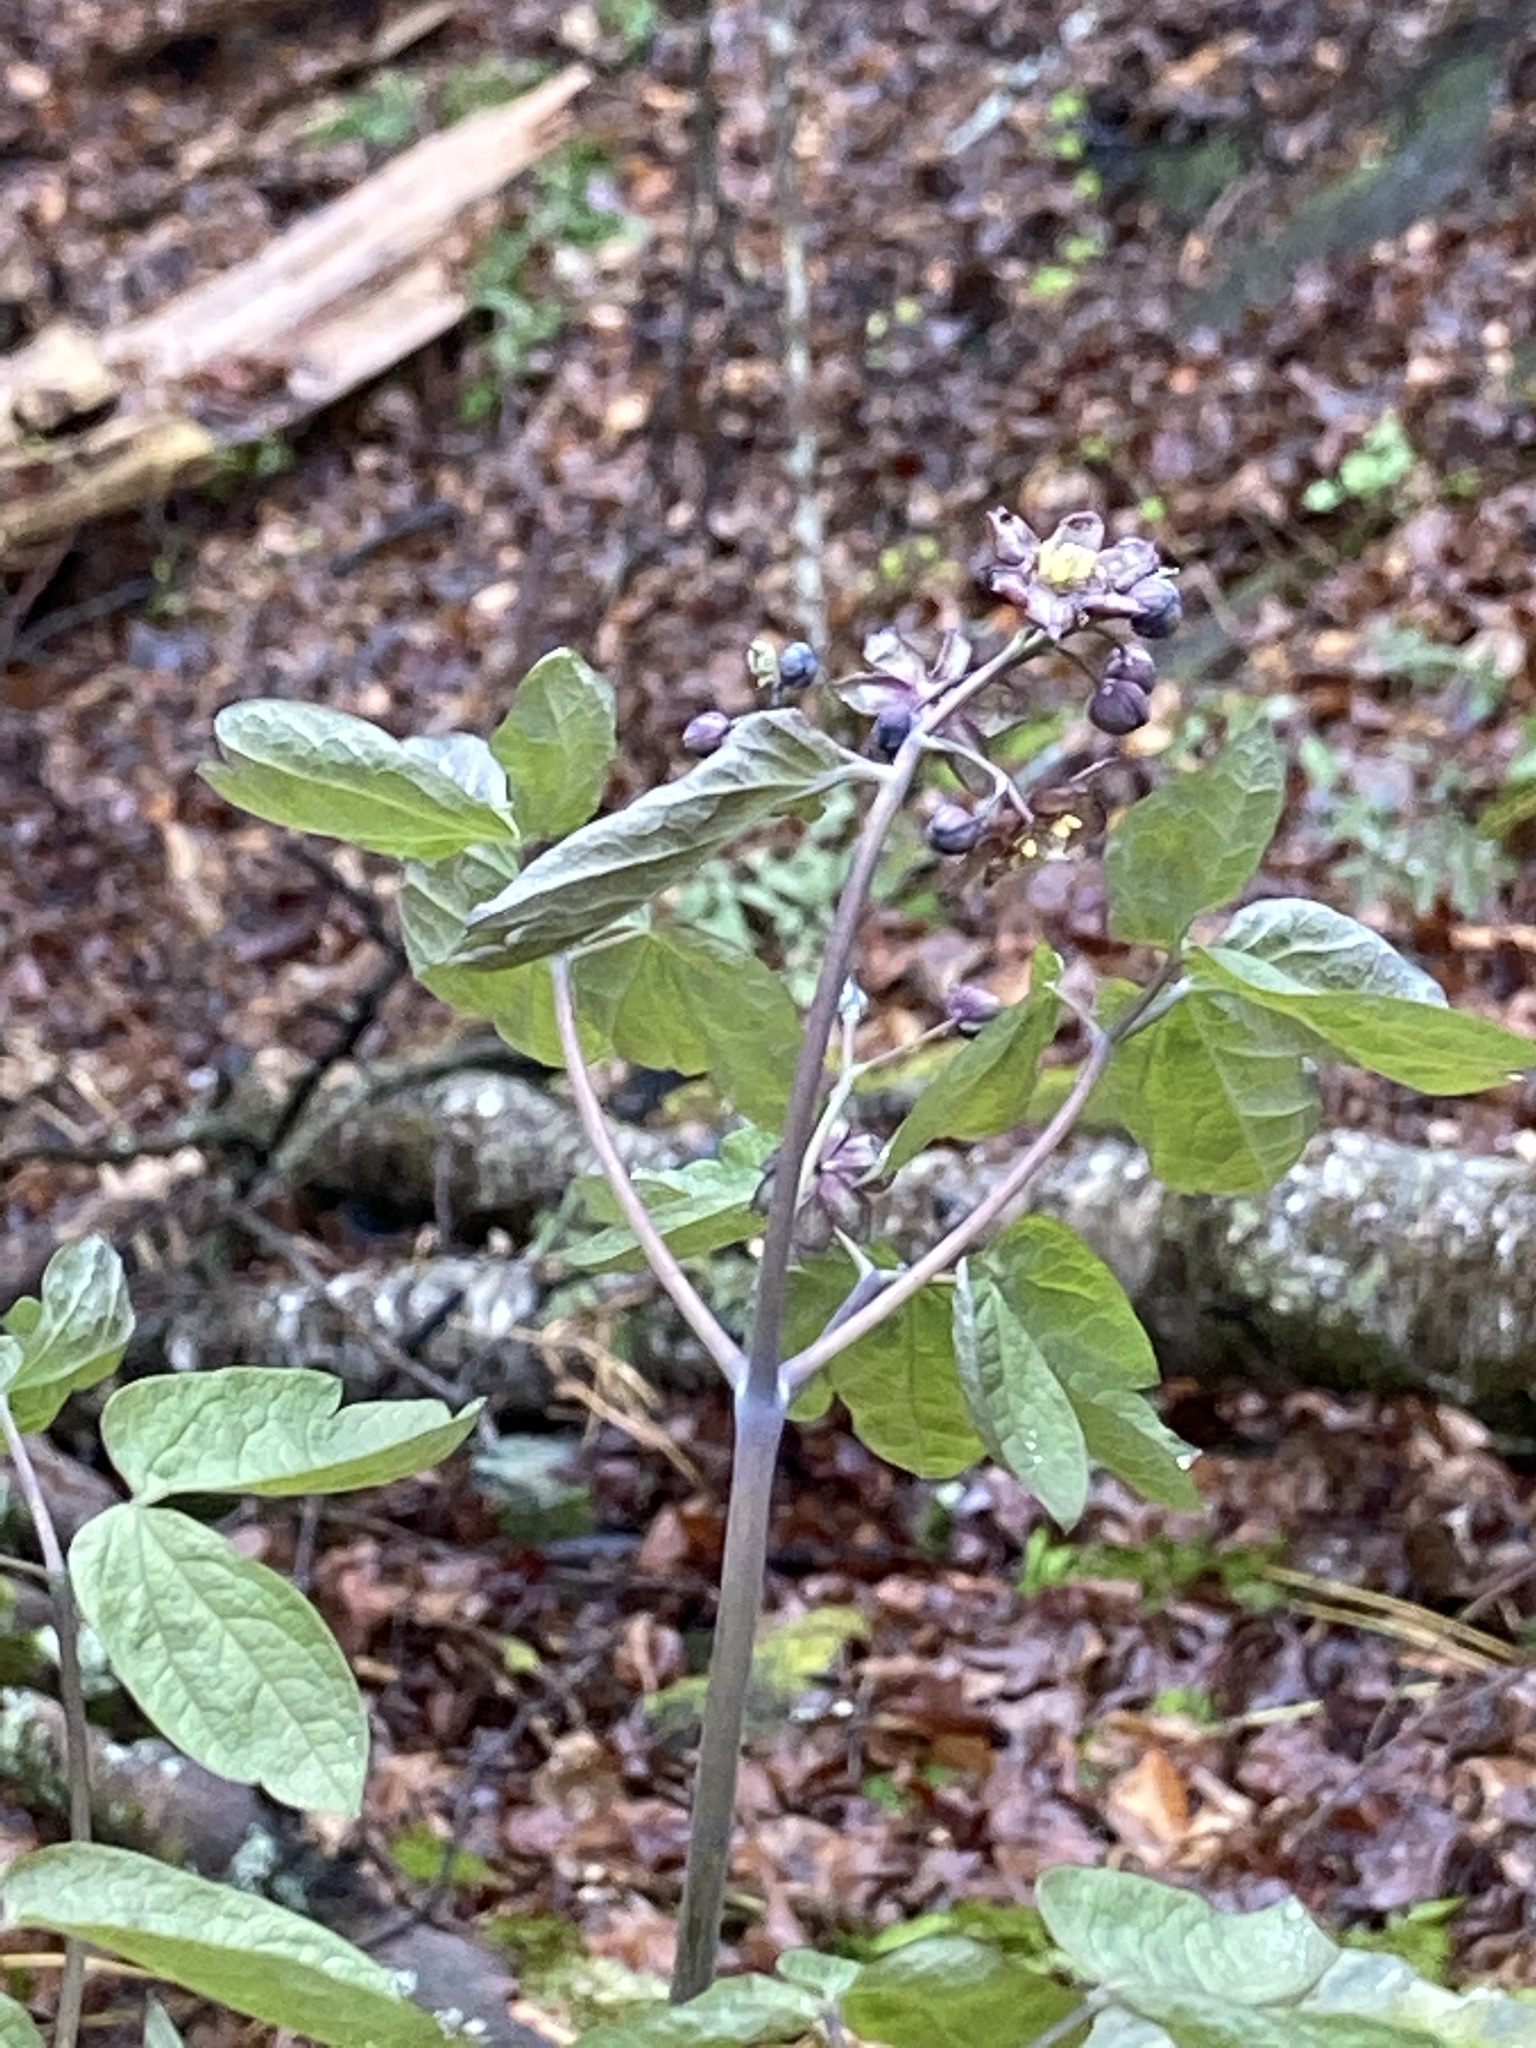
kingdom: Plantae
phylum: Tracheophyta
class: Magnoliopsida
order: Ranunculales
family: Berberidaceae
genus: Caulophyllum
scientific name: Caulophyllum giganteum
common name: Blue cohosh
